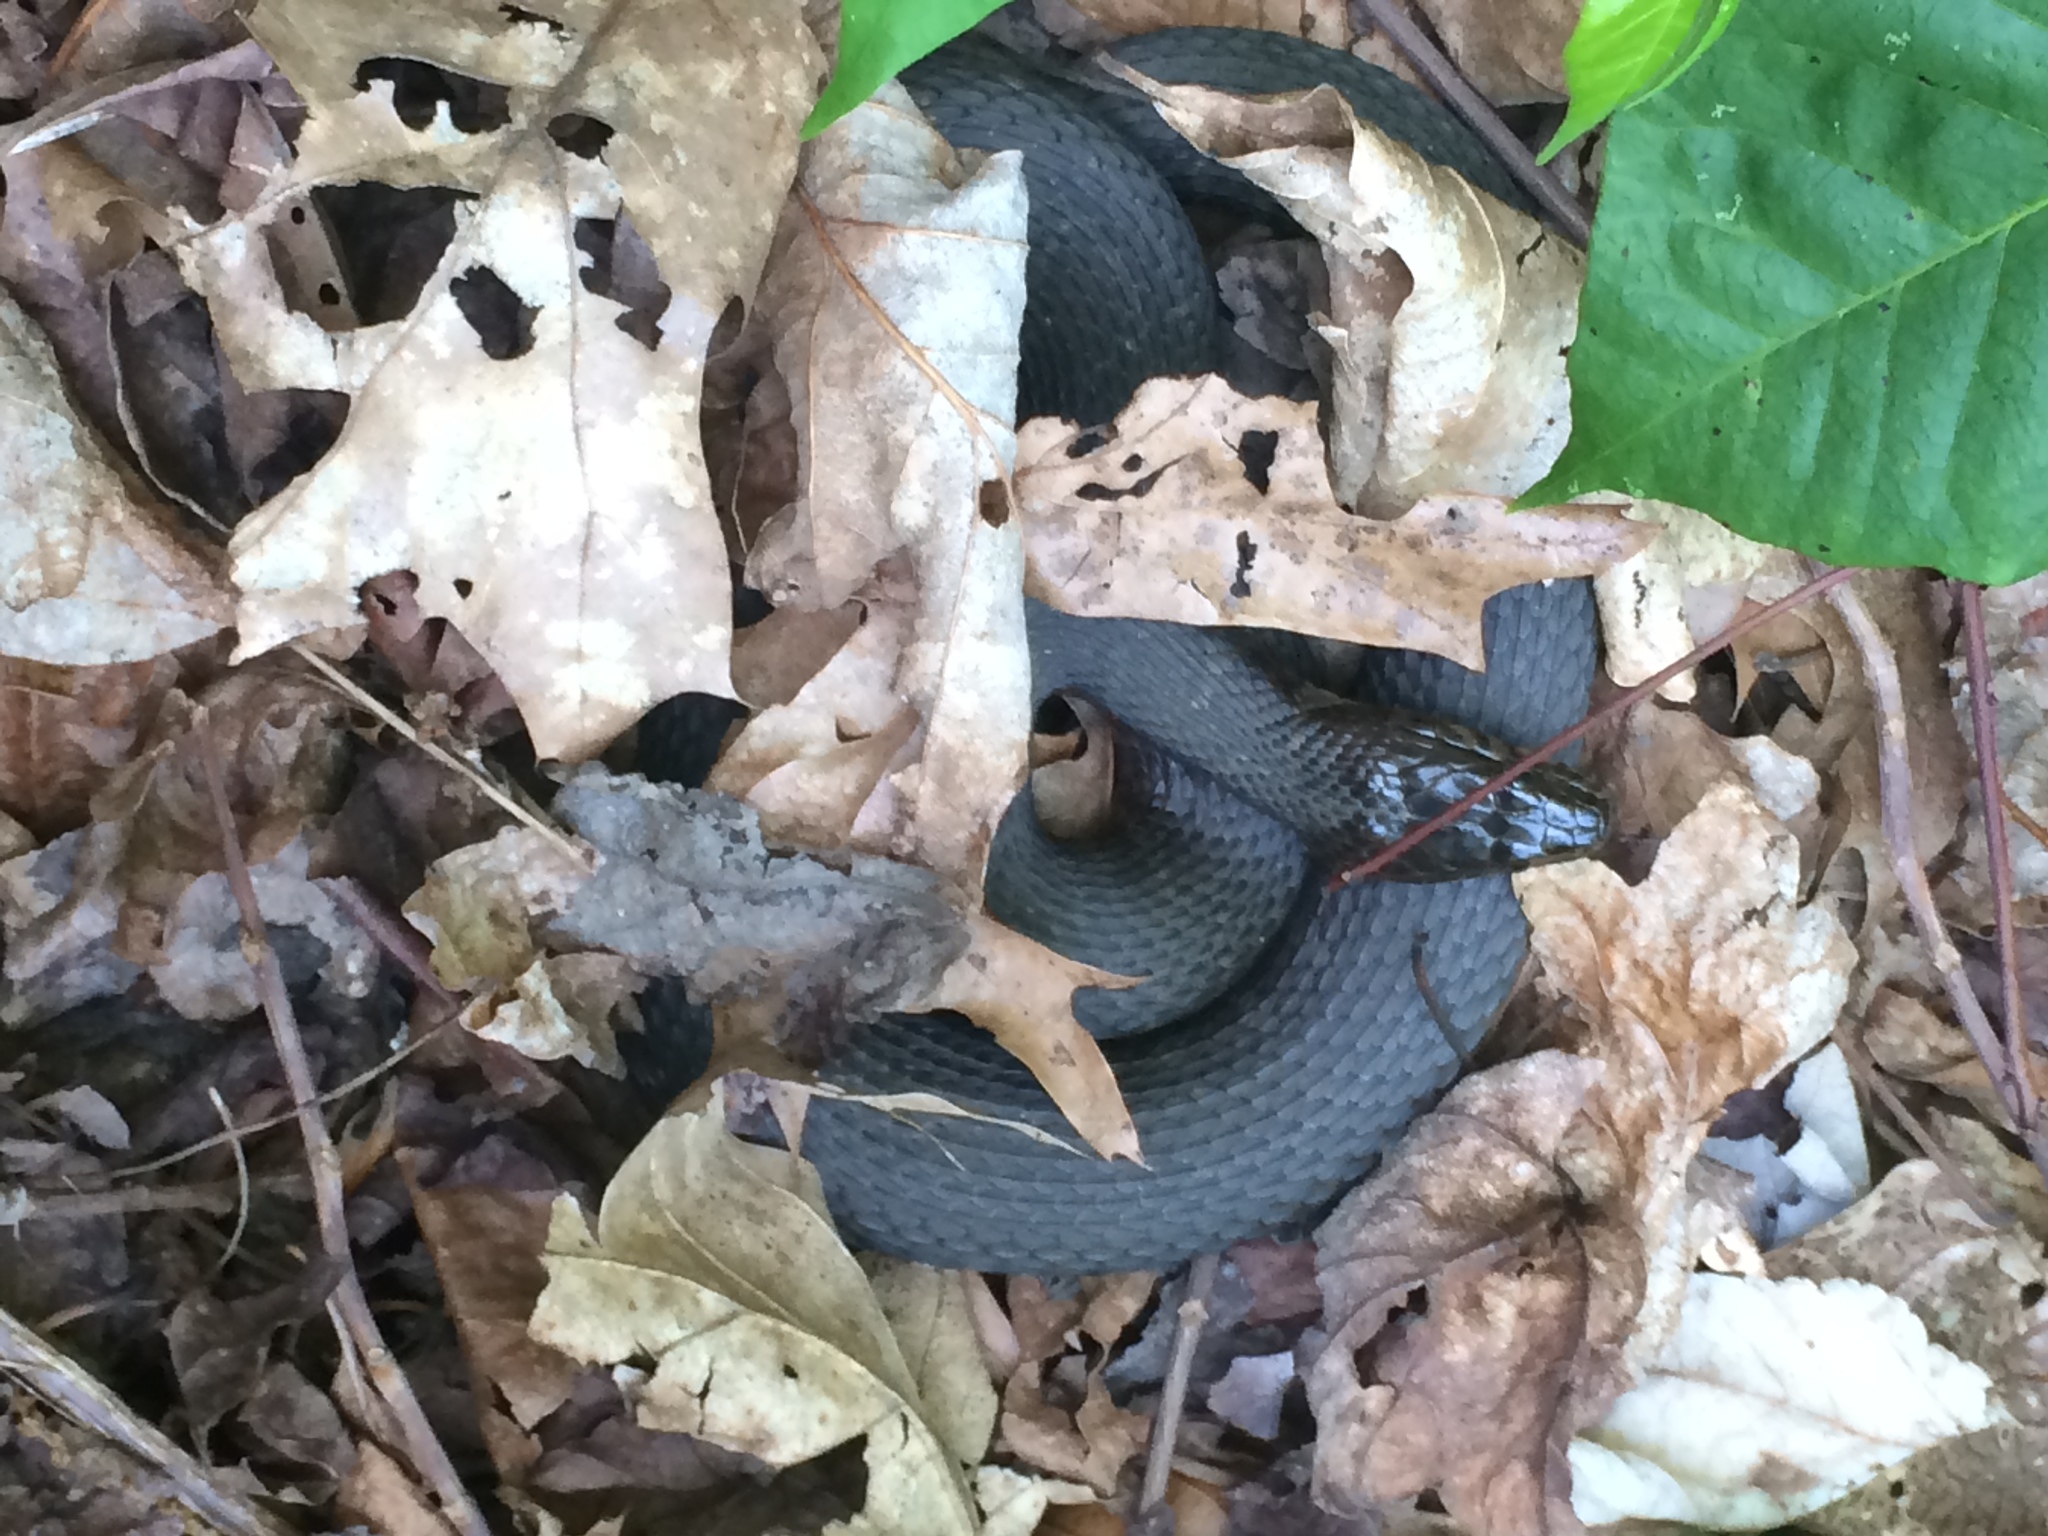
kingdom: Animalia
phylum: Chordata
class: Squamata
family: Colubridae
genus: Nerodia
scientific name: Nerodia sipedon
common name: Northern water snake
